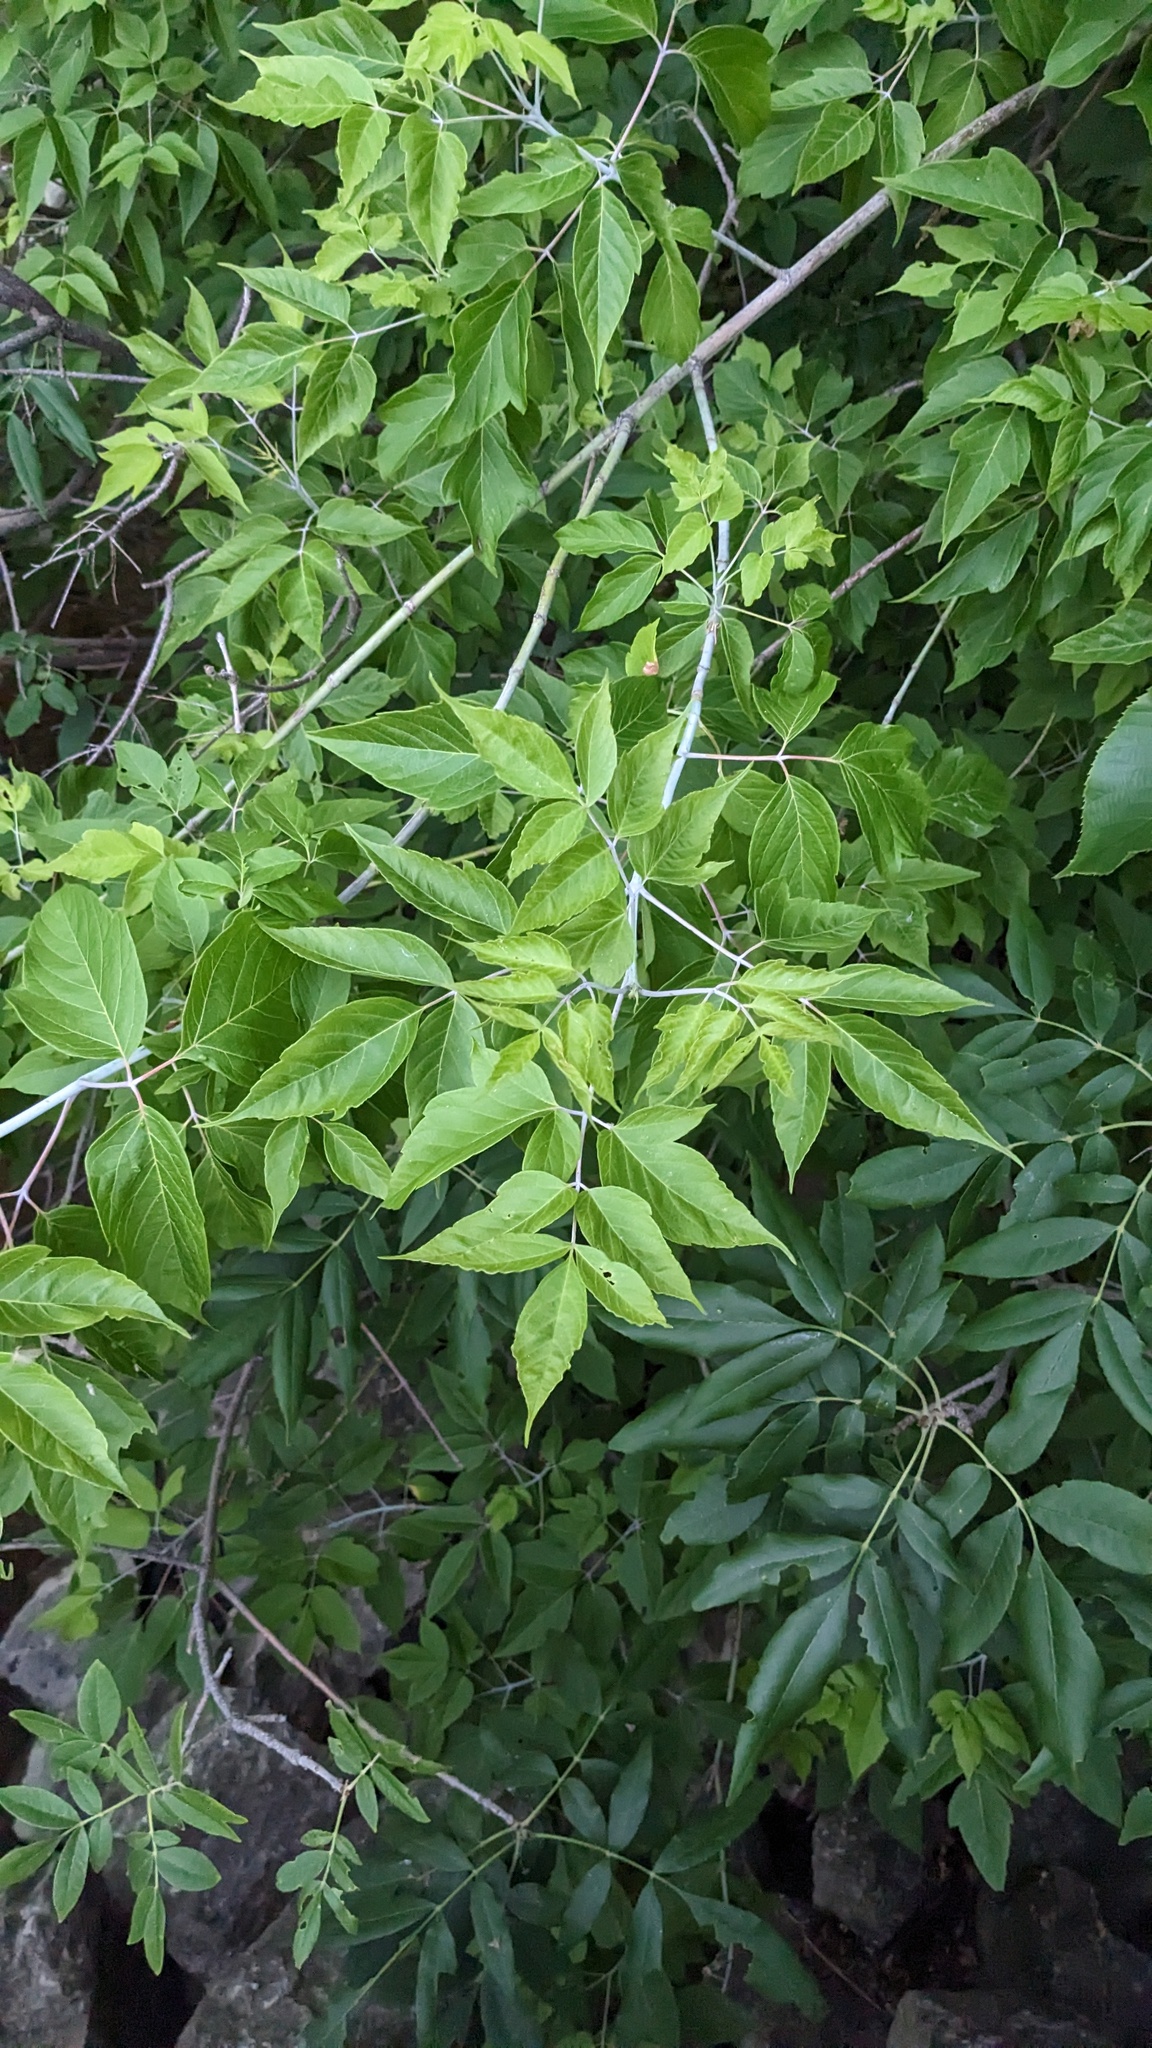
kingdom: Plantae
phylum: Tracheophyta
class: Magnoliopsida
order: Sapindales
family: Sapindaceae
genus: Acer
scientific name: Acer negundo
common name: Ashleaf maple
